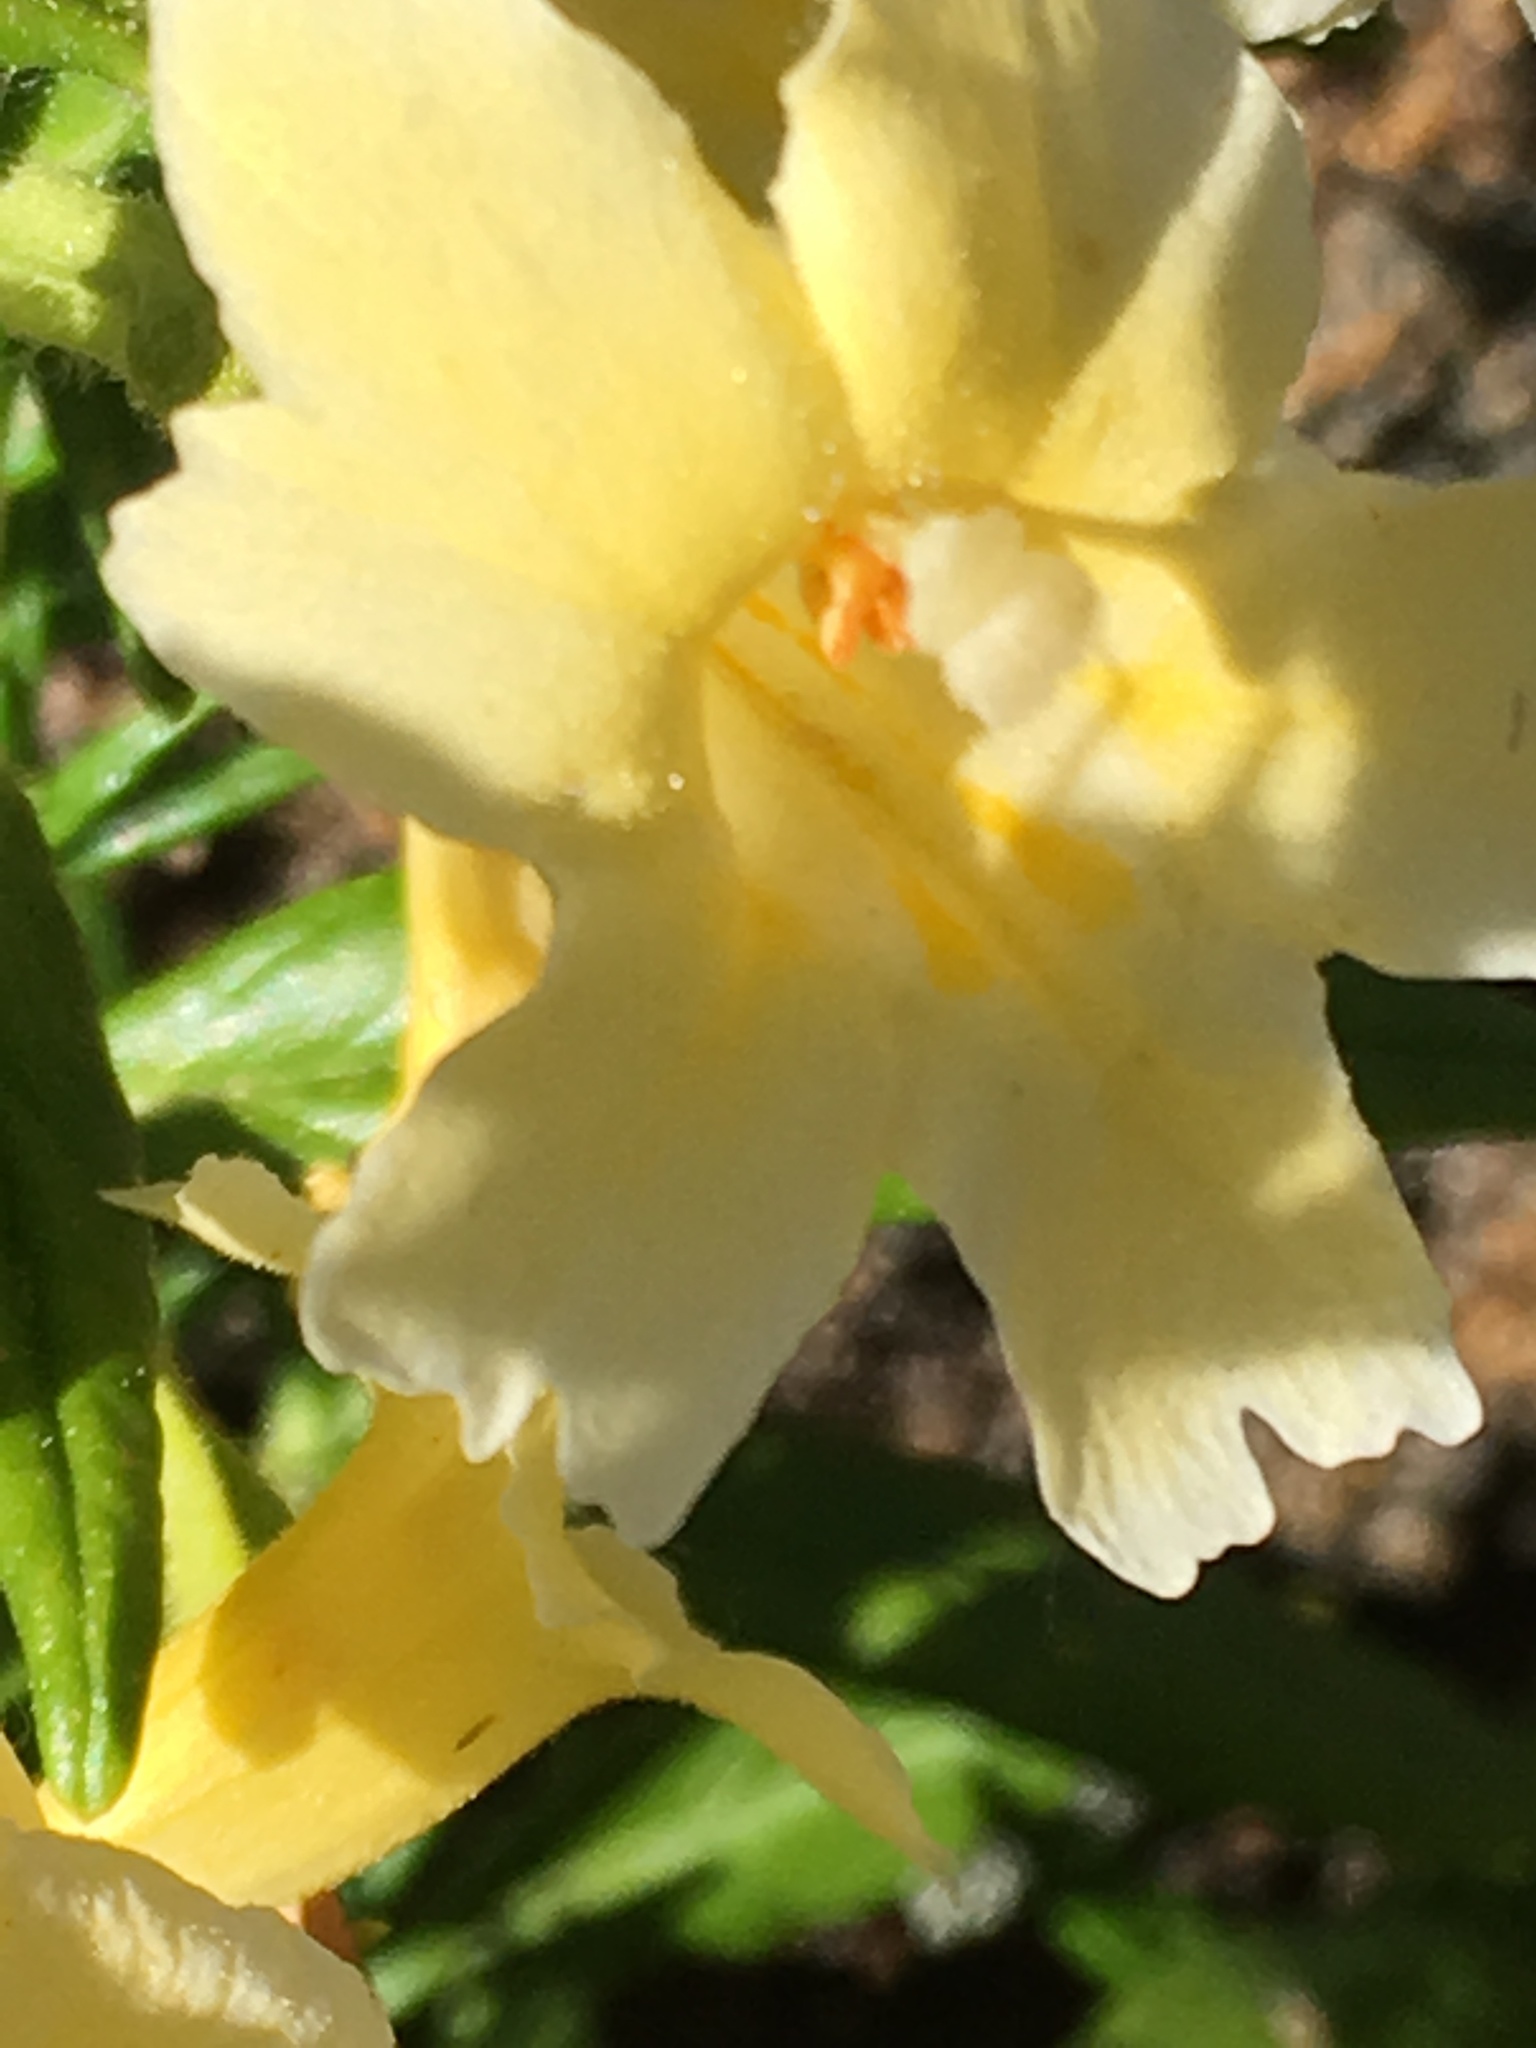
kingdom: Plantae
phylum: Tracheophyta
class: Magnoliopsida
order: Lamiales
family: Phrymaceae
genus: Diplacus
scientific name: Diplacus longiflorus
